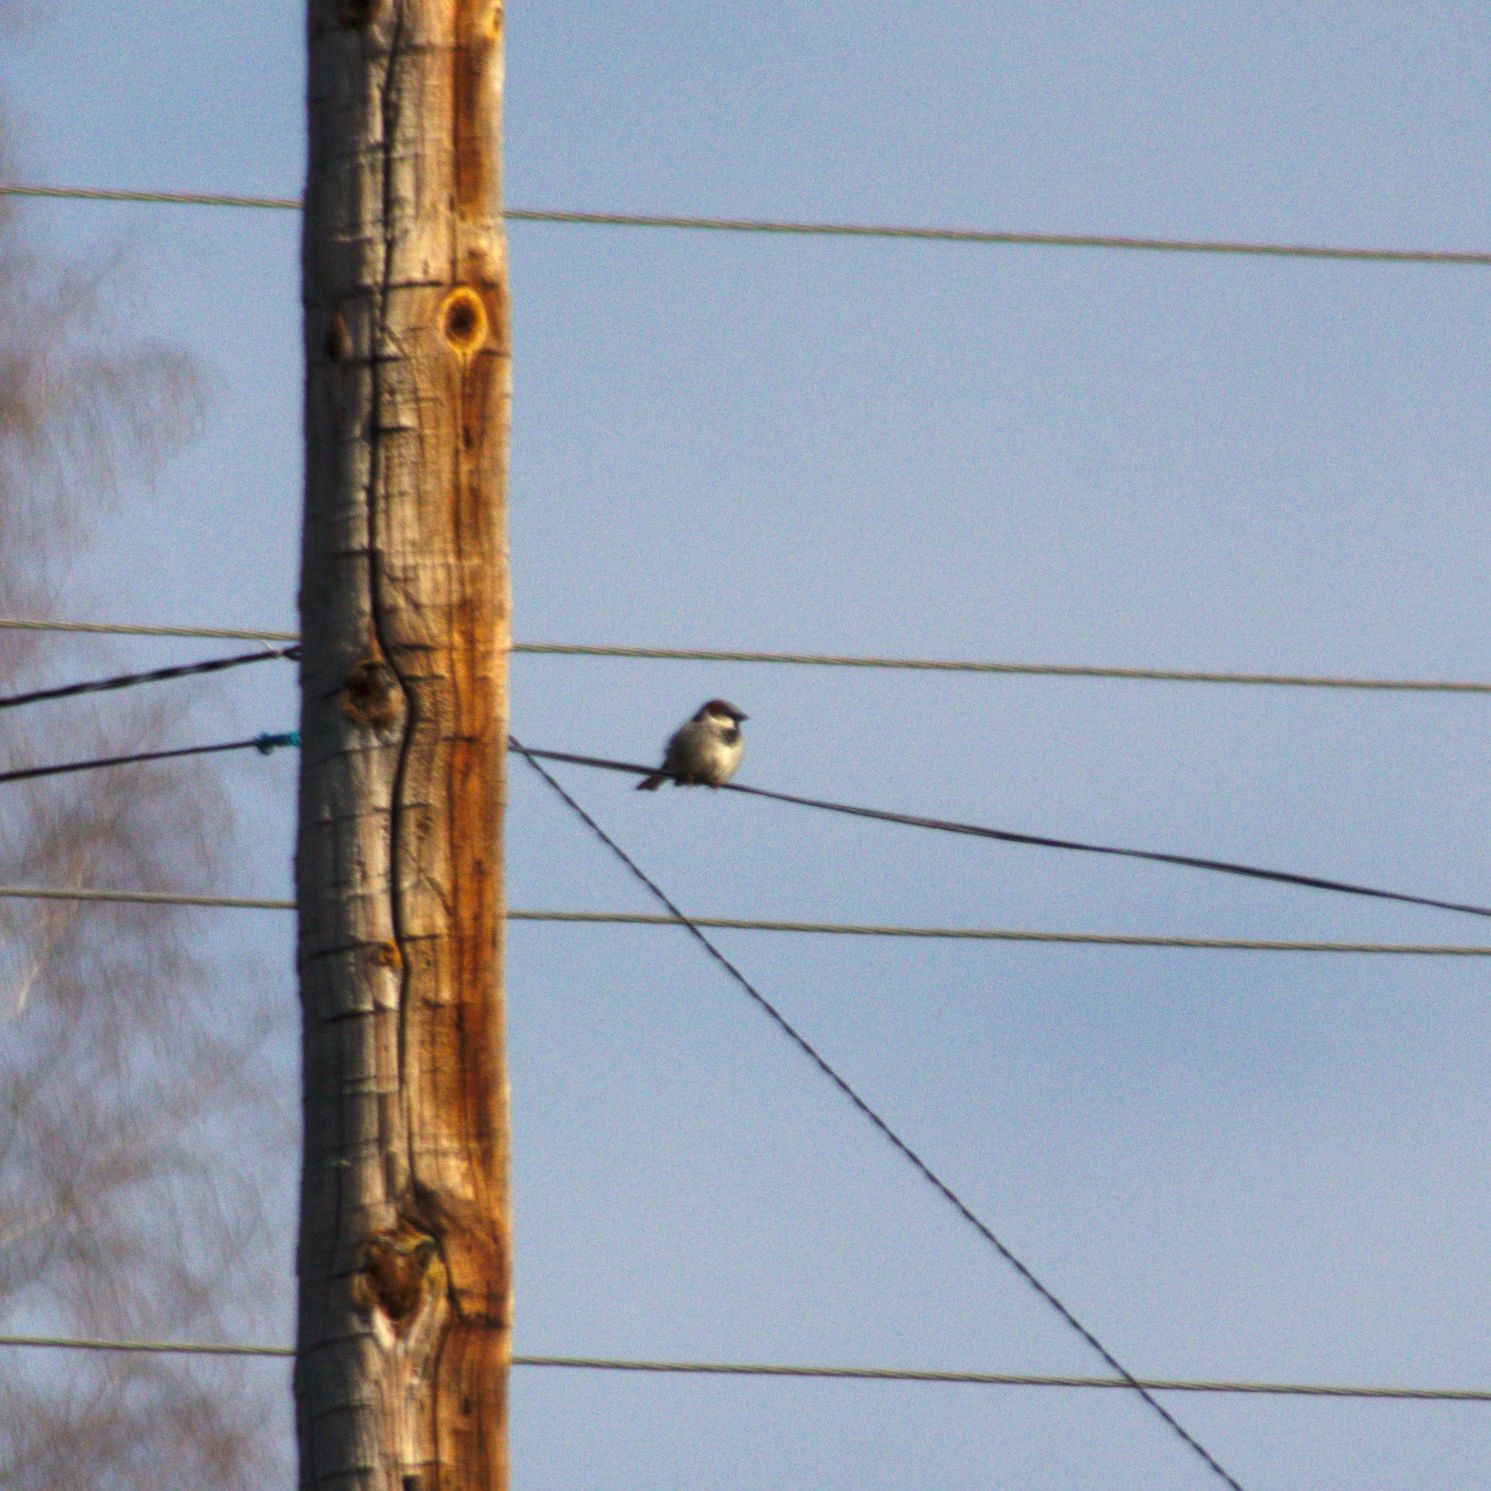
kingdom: Animalia
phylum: Chordata
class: Aves
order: Passeriformes
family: Passeridae
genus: Passer
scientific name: Passer domesticus
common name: House sparrow
